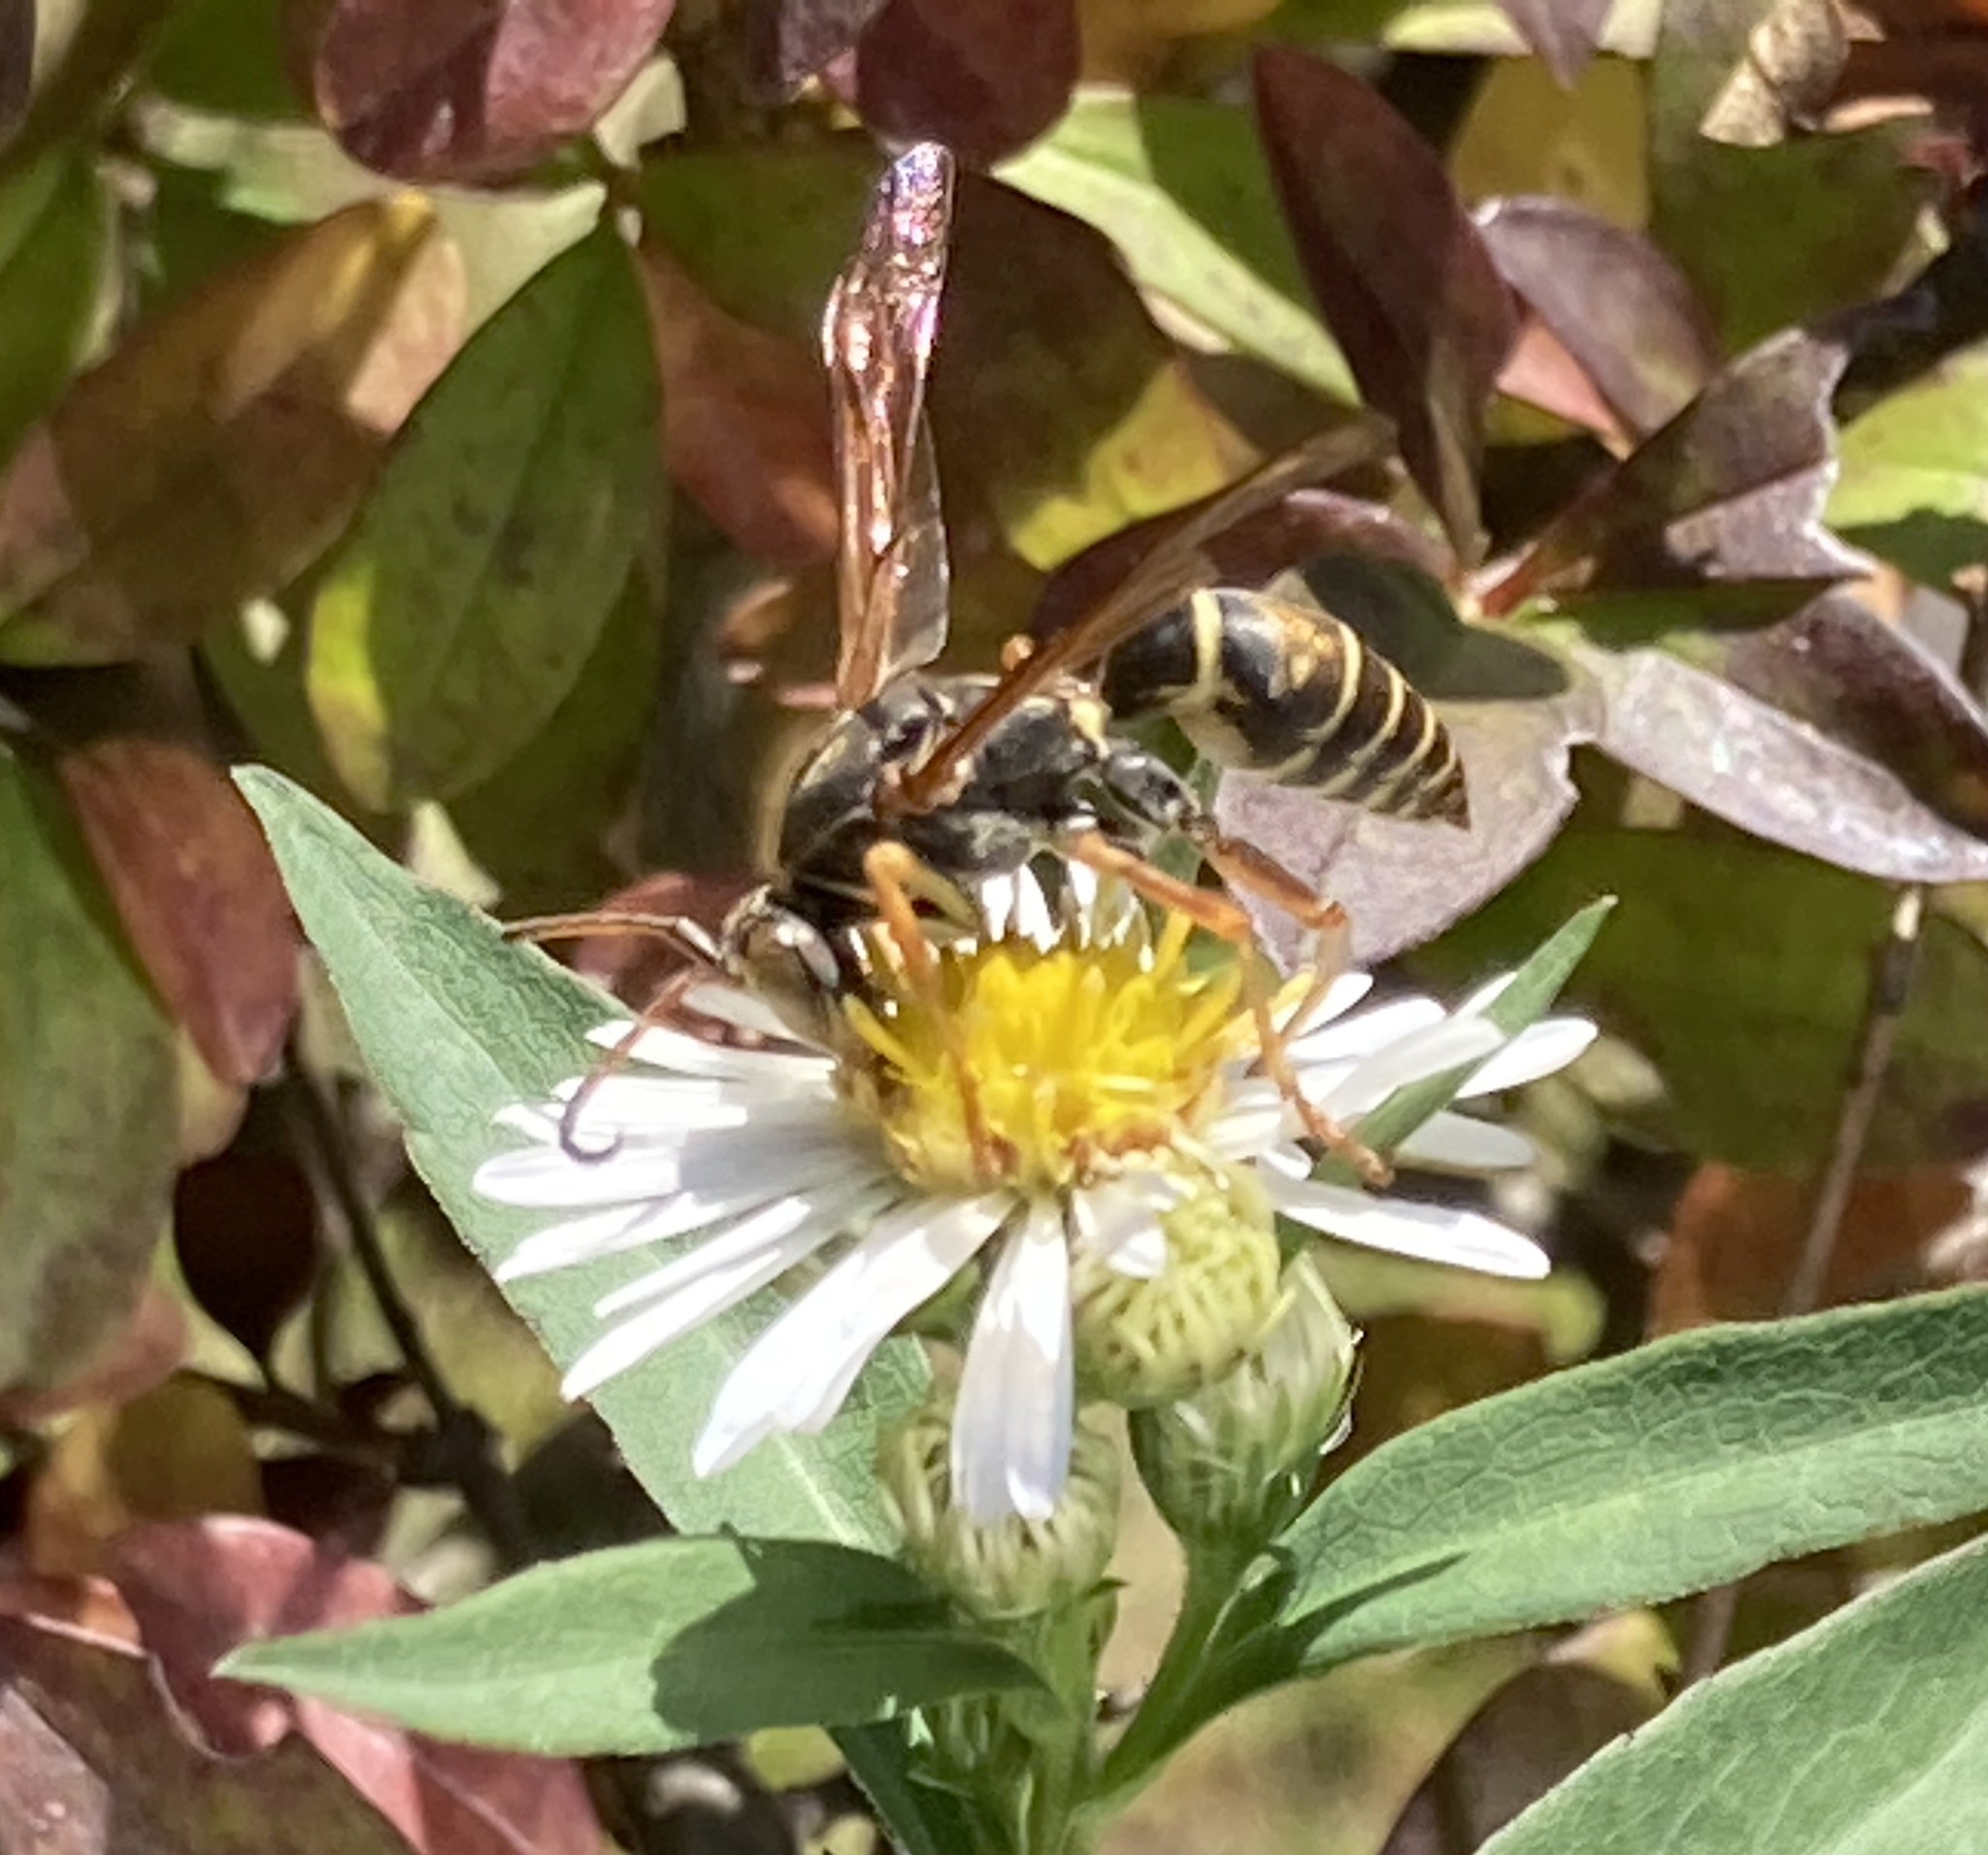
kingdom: Animalia
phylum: Arthropoda
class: Insecta
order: Hymenoptera
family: Eumenidae
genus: Polistes
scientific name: Polistes fuscatus
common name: Dark paper wasp
